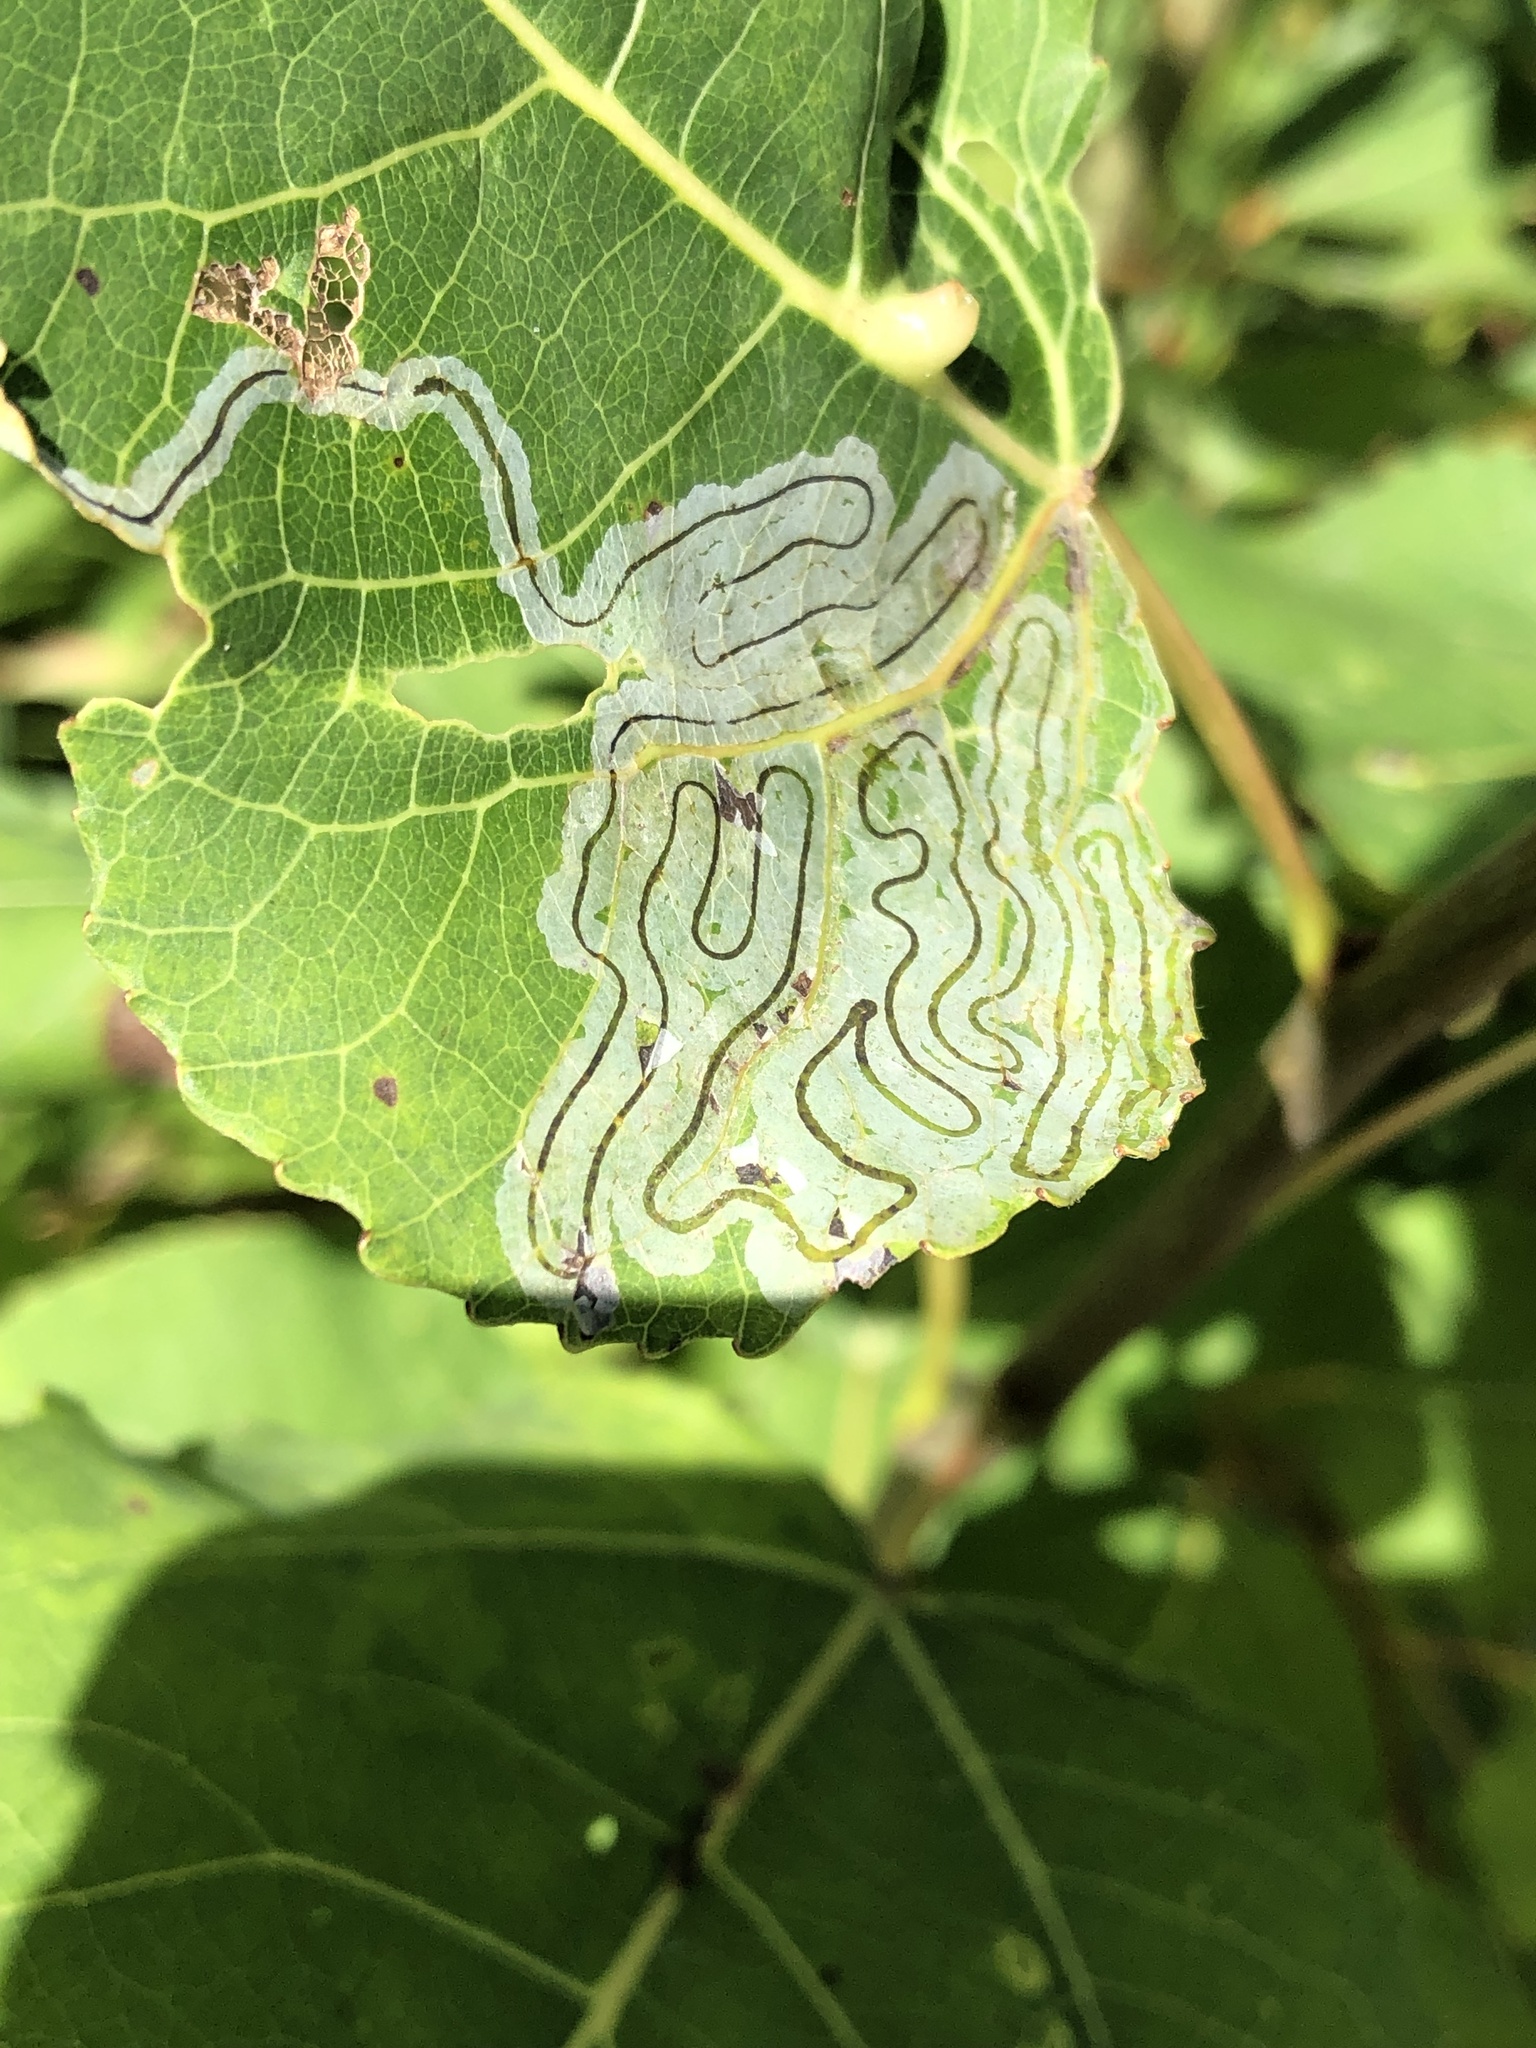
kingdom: Animalia
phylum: Arthropoda
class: Insecta
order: Lepidoptera
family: Gracillariidae
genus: Phyllocnistis
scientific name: Phyllocnistis populiella
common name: Aspen serpentine leafminer moth
